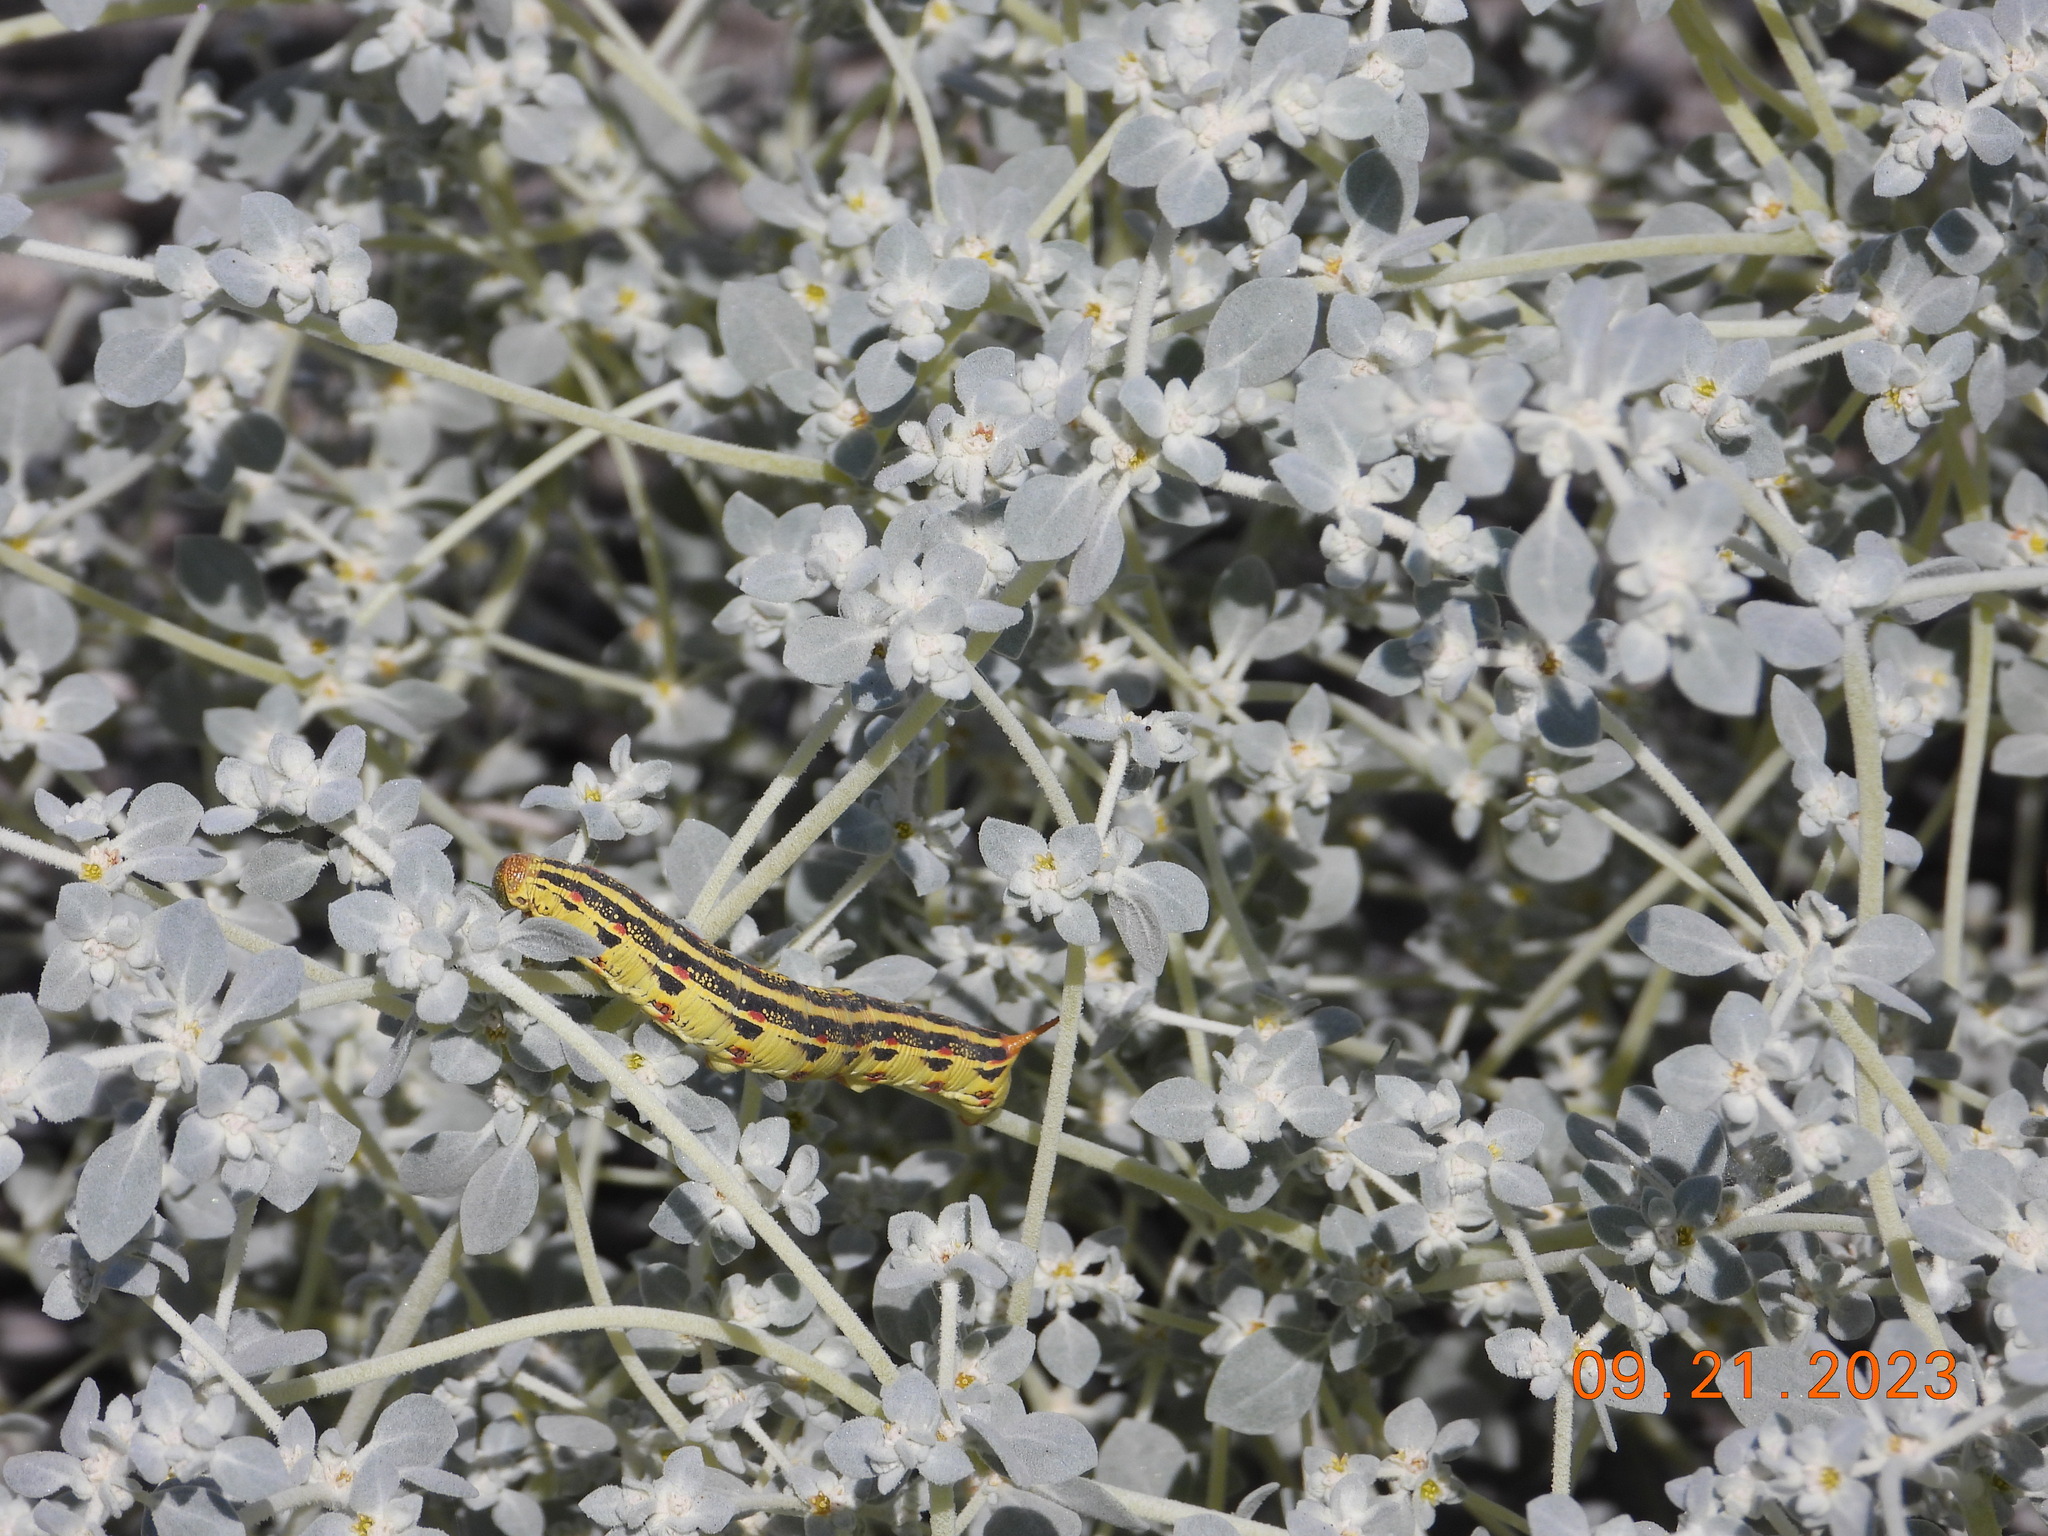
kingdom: Animalia
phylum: Arthropoda
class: Insecta
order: Lepidoptera
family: Sphingidae
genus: Hyles
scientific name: Hyles lineata
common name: White-lined sphinx
